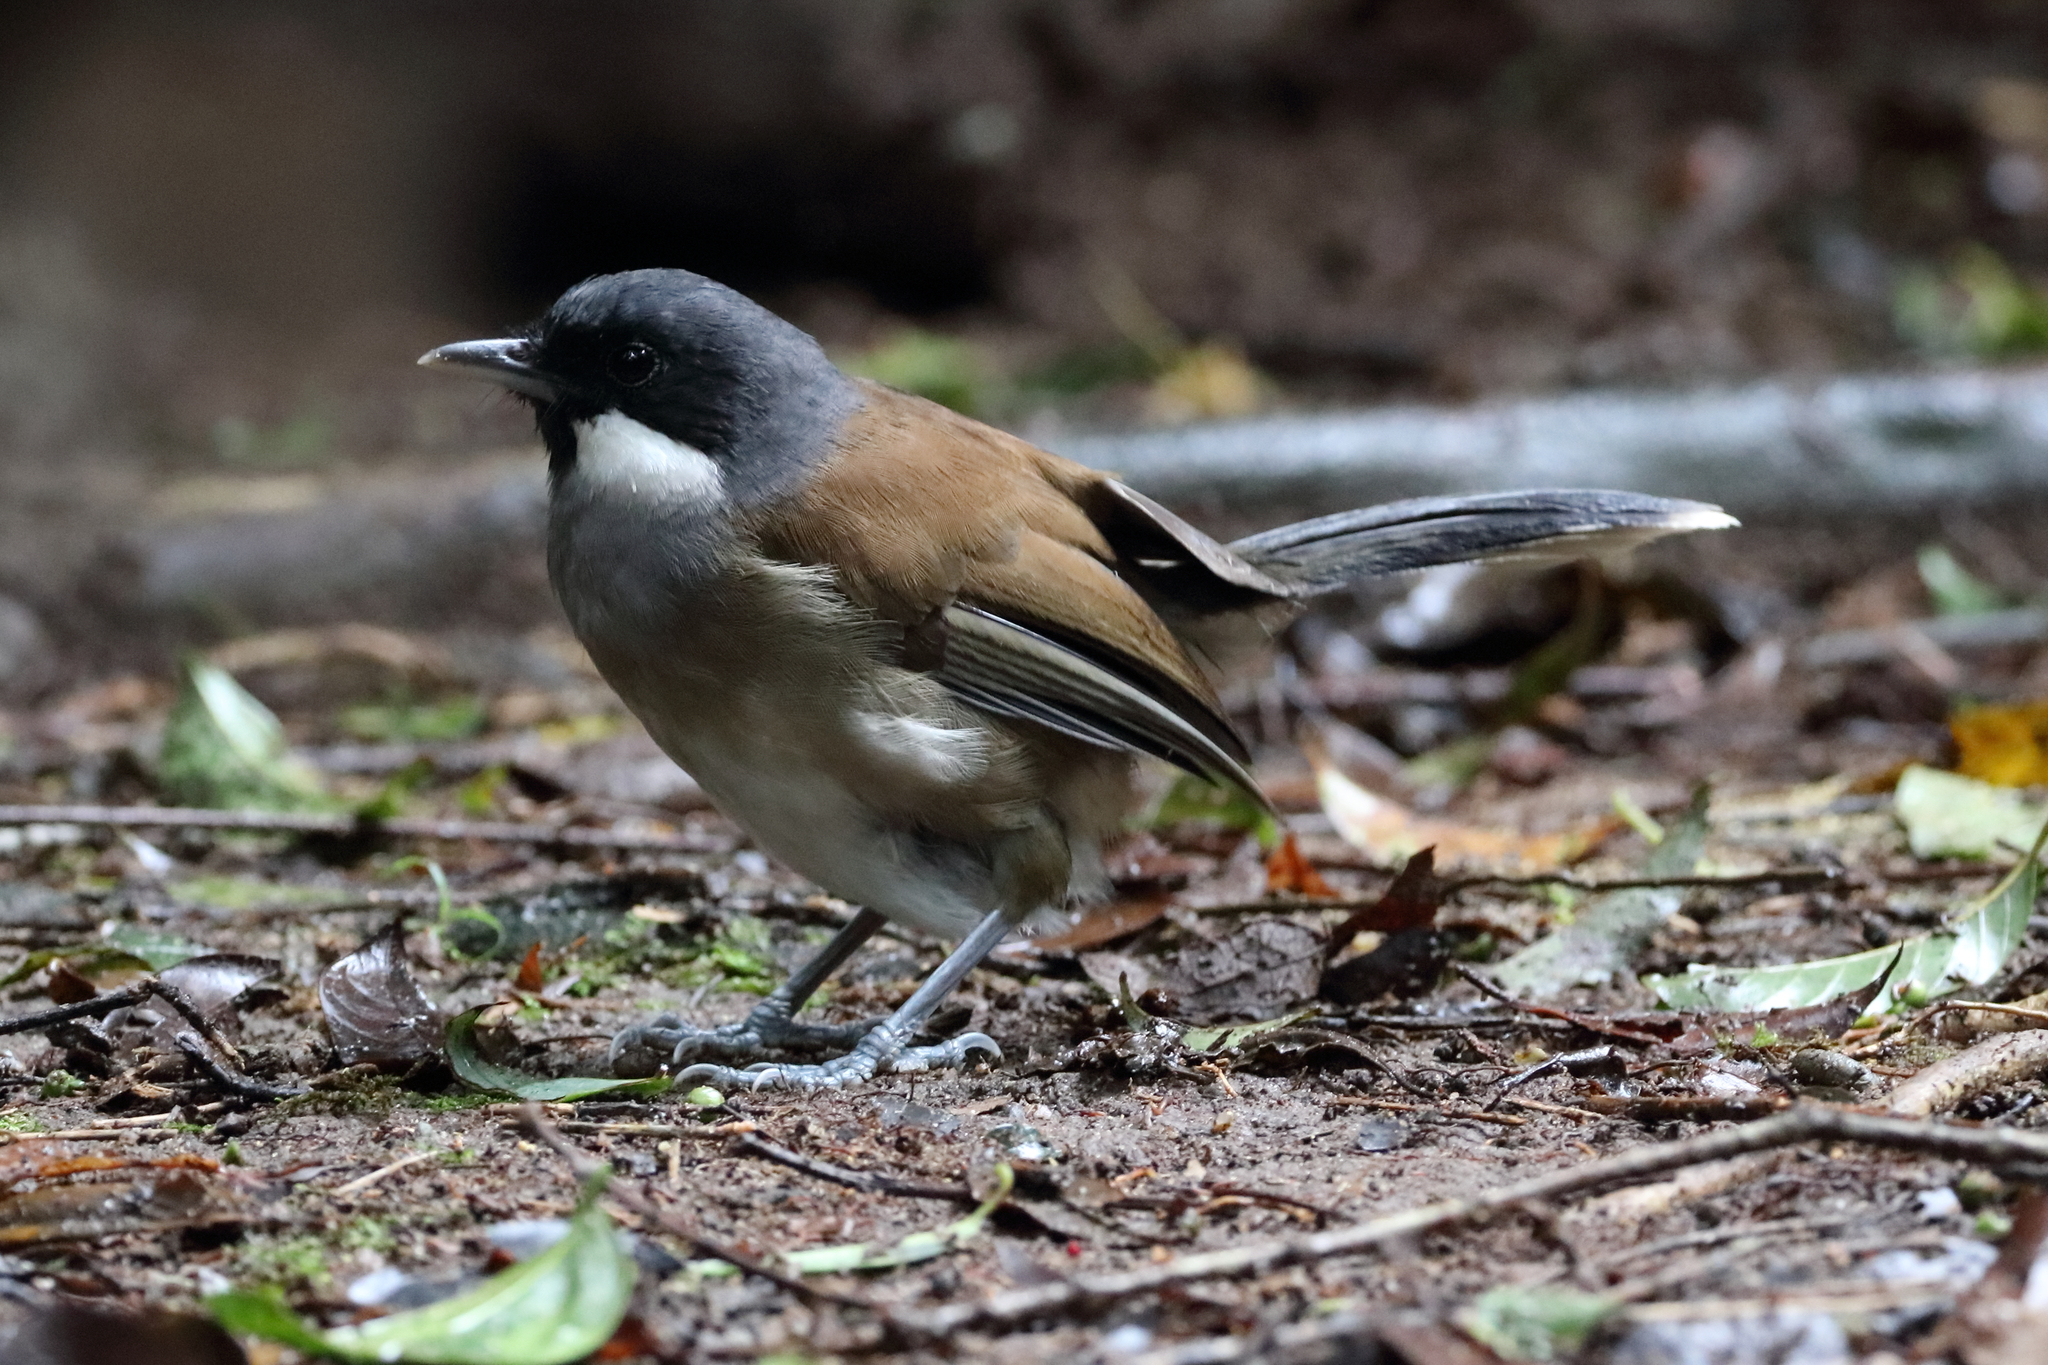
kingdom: Animalia
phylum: Chordata
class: Aves
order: Passeriformes
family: Leiothrichidae
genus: Garrulax
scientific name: Garrulax vassali
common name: White-cheeked laughingthrush
